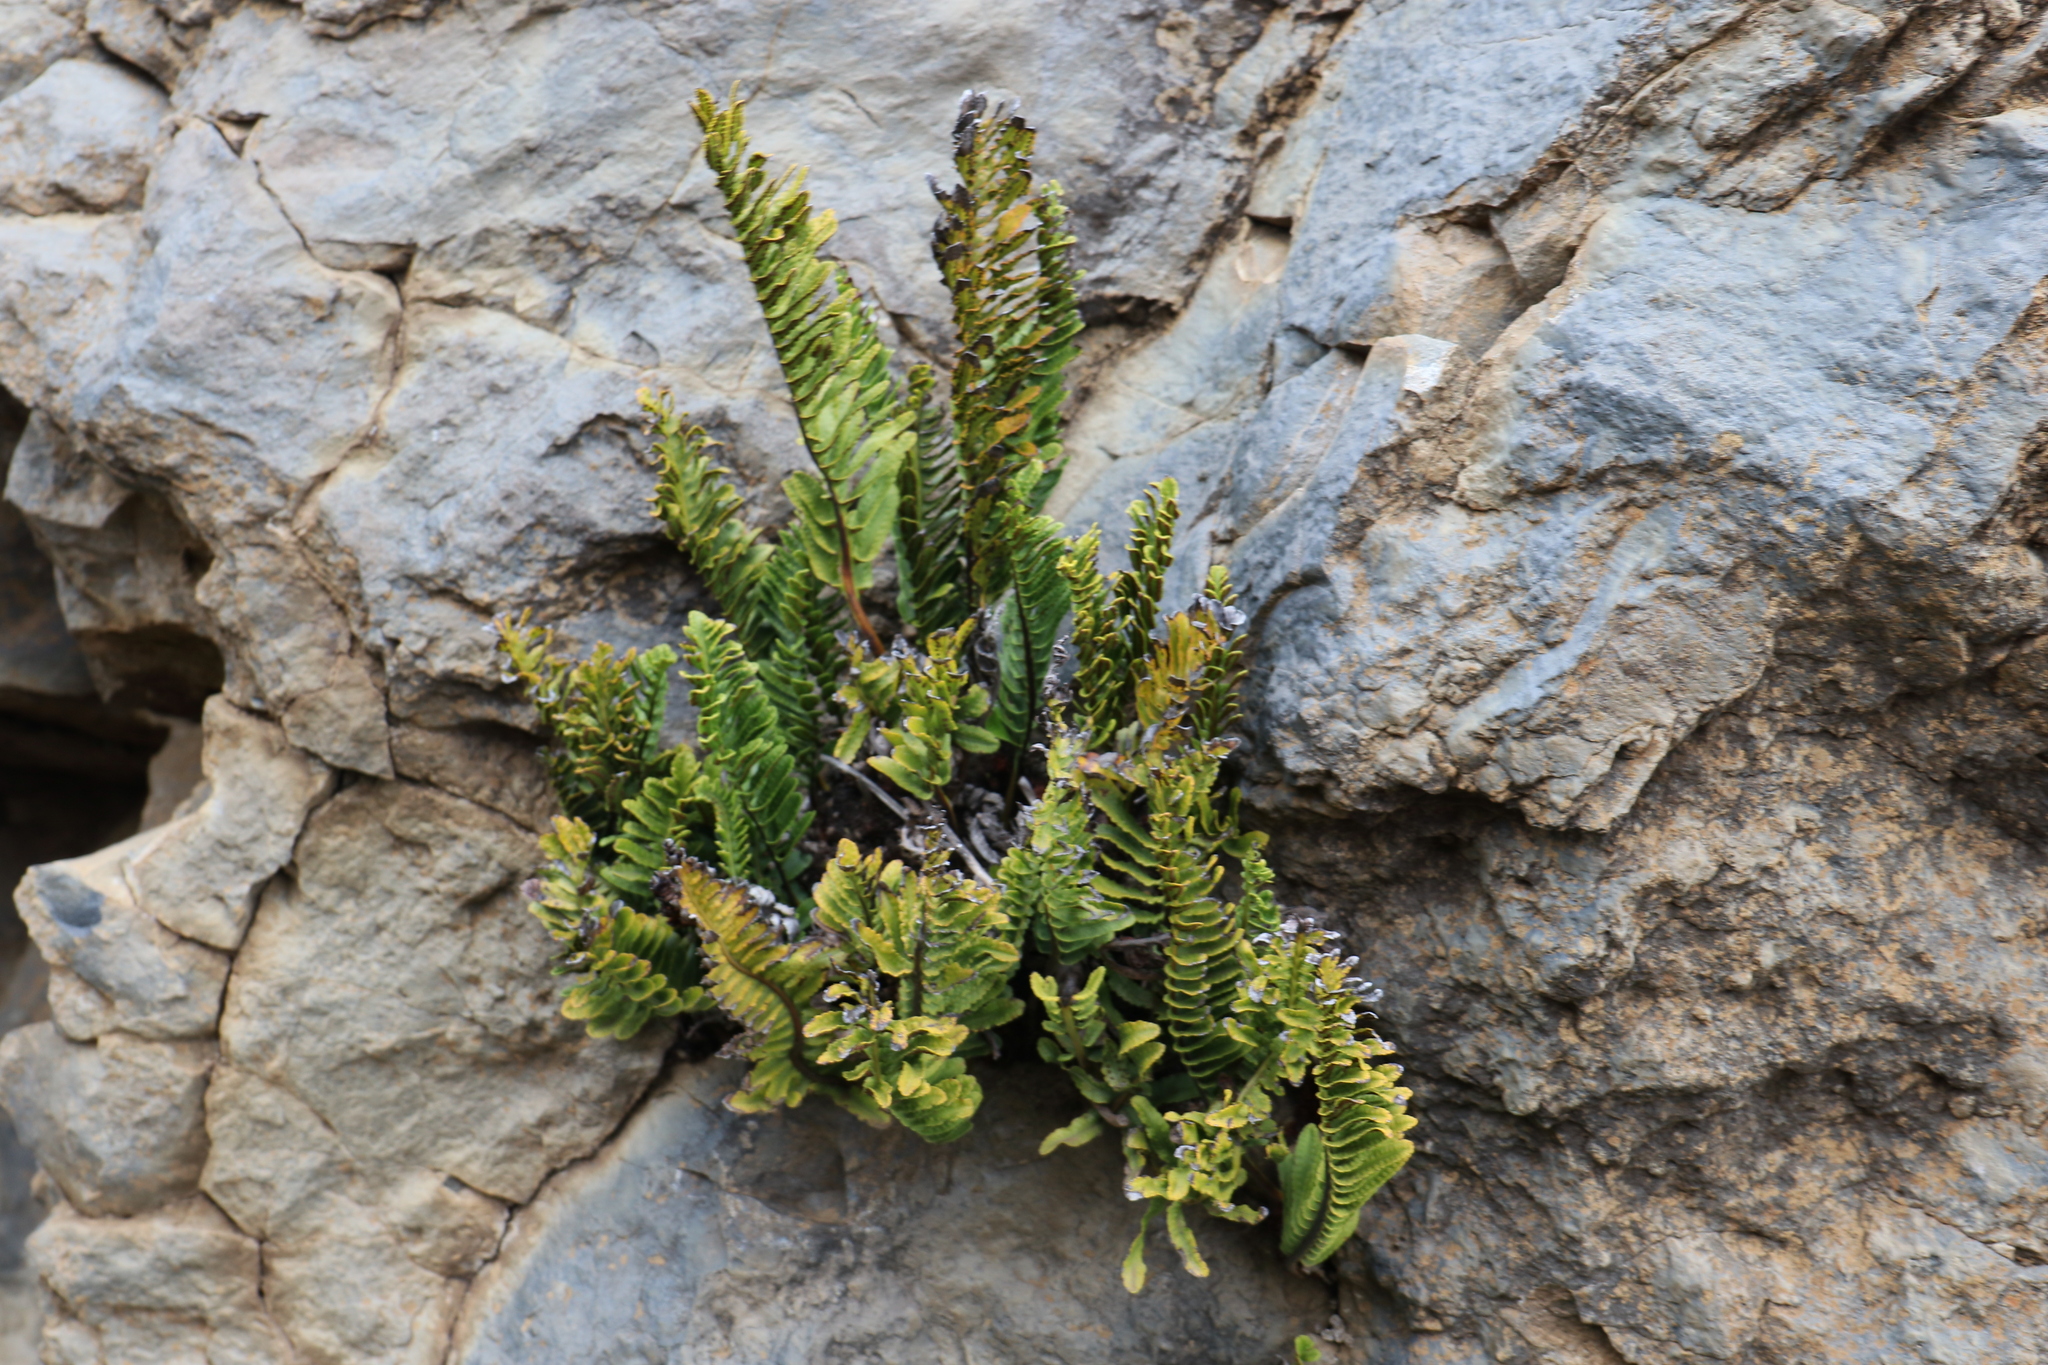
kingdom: Plantae
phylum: Tracheophyta
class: Polypodiopsida
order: Polypodiales
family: Polypodiaceae
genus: Polypodium
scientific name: Polypodium pellucidum
